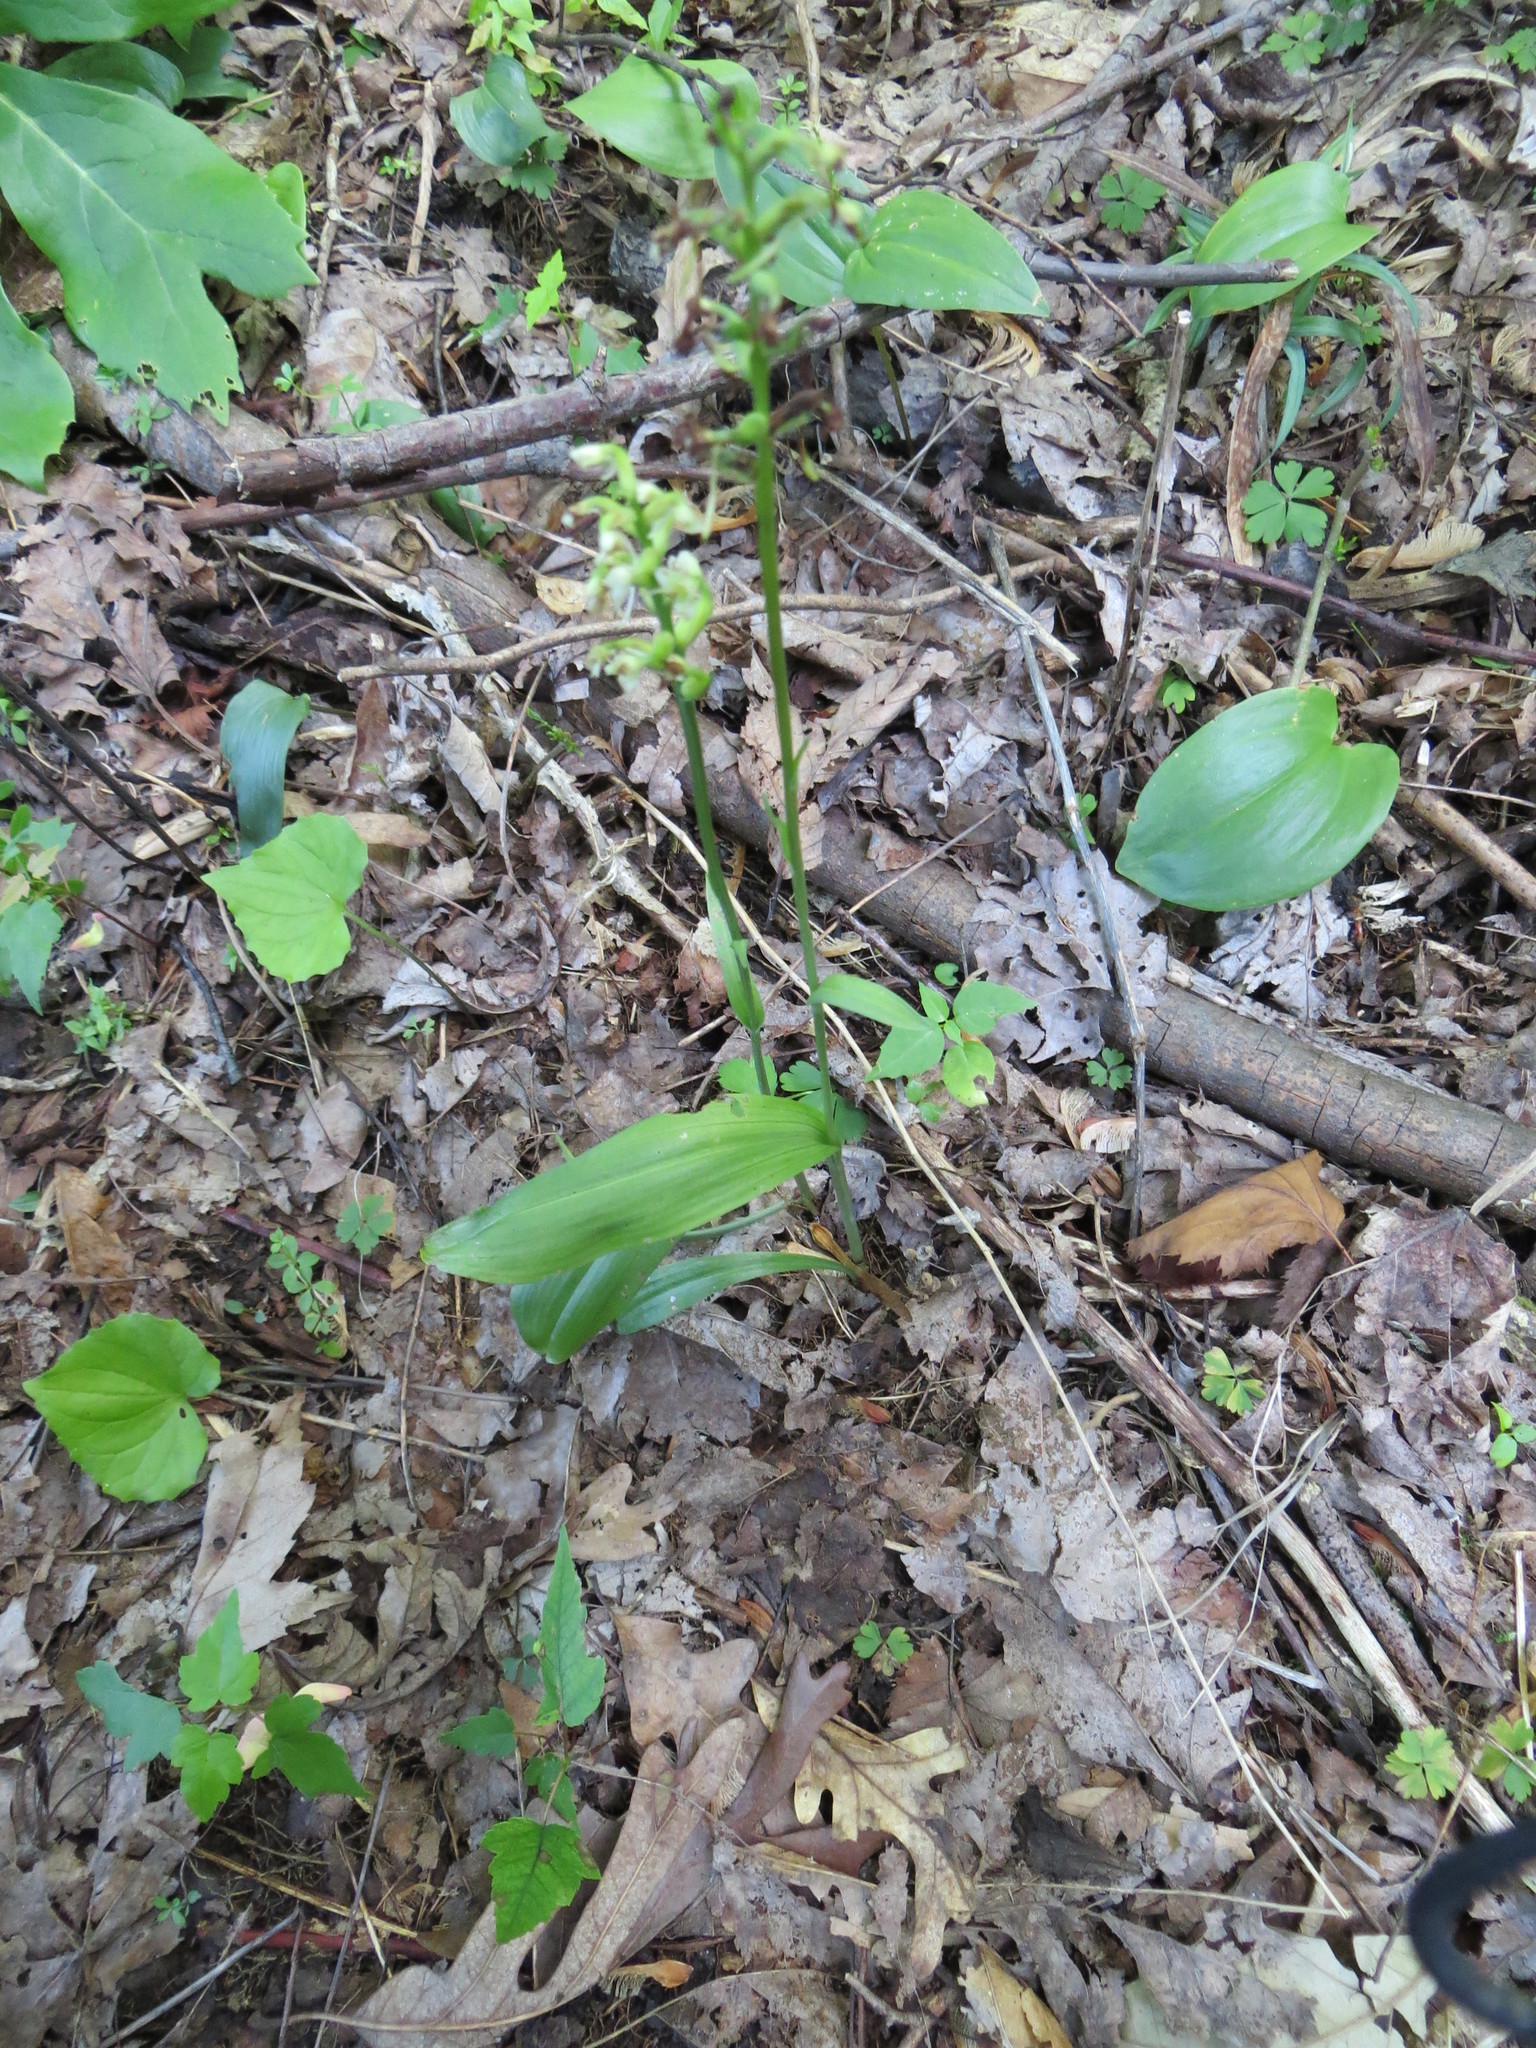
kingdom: Plantae
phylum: Tracheophyta
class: Liliopsida
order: Asparagales
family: Orchidaceae
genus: Platanthera
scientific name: Platanthera clavellata
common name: Club-spur orchid
